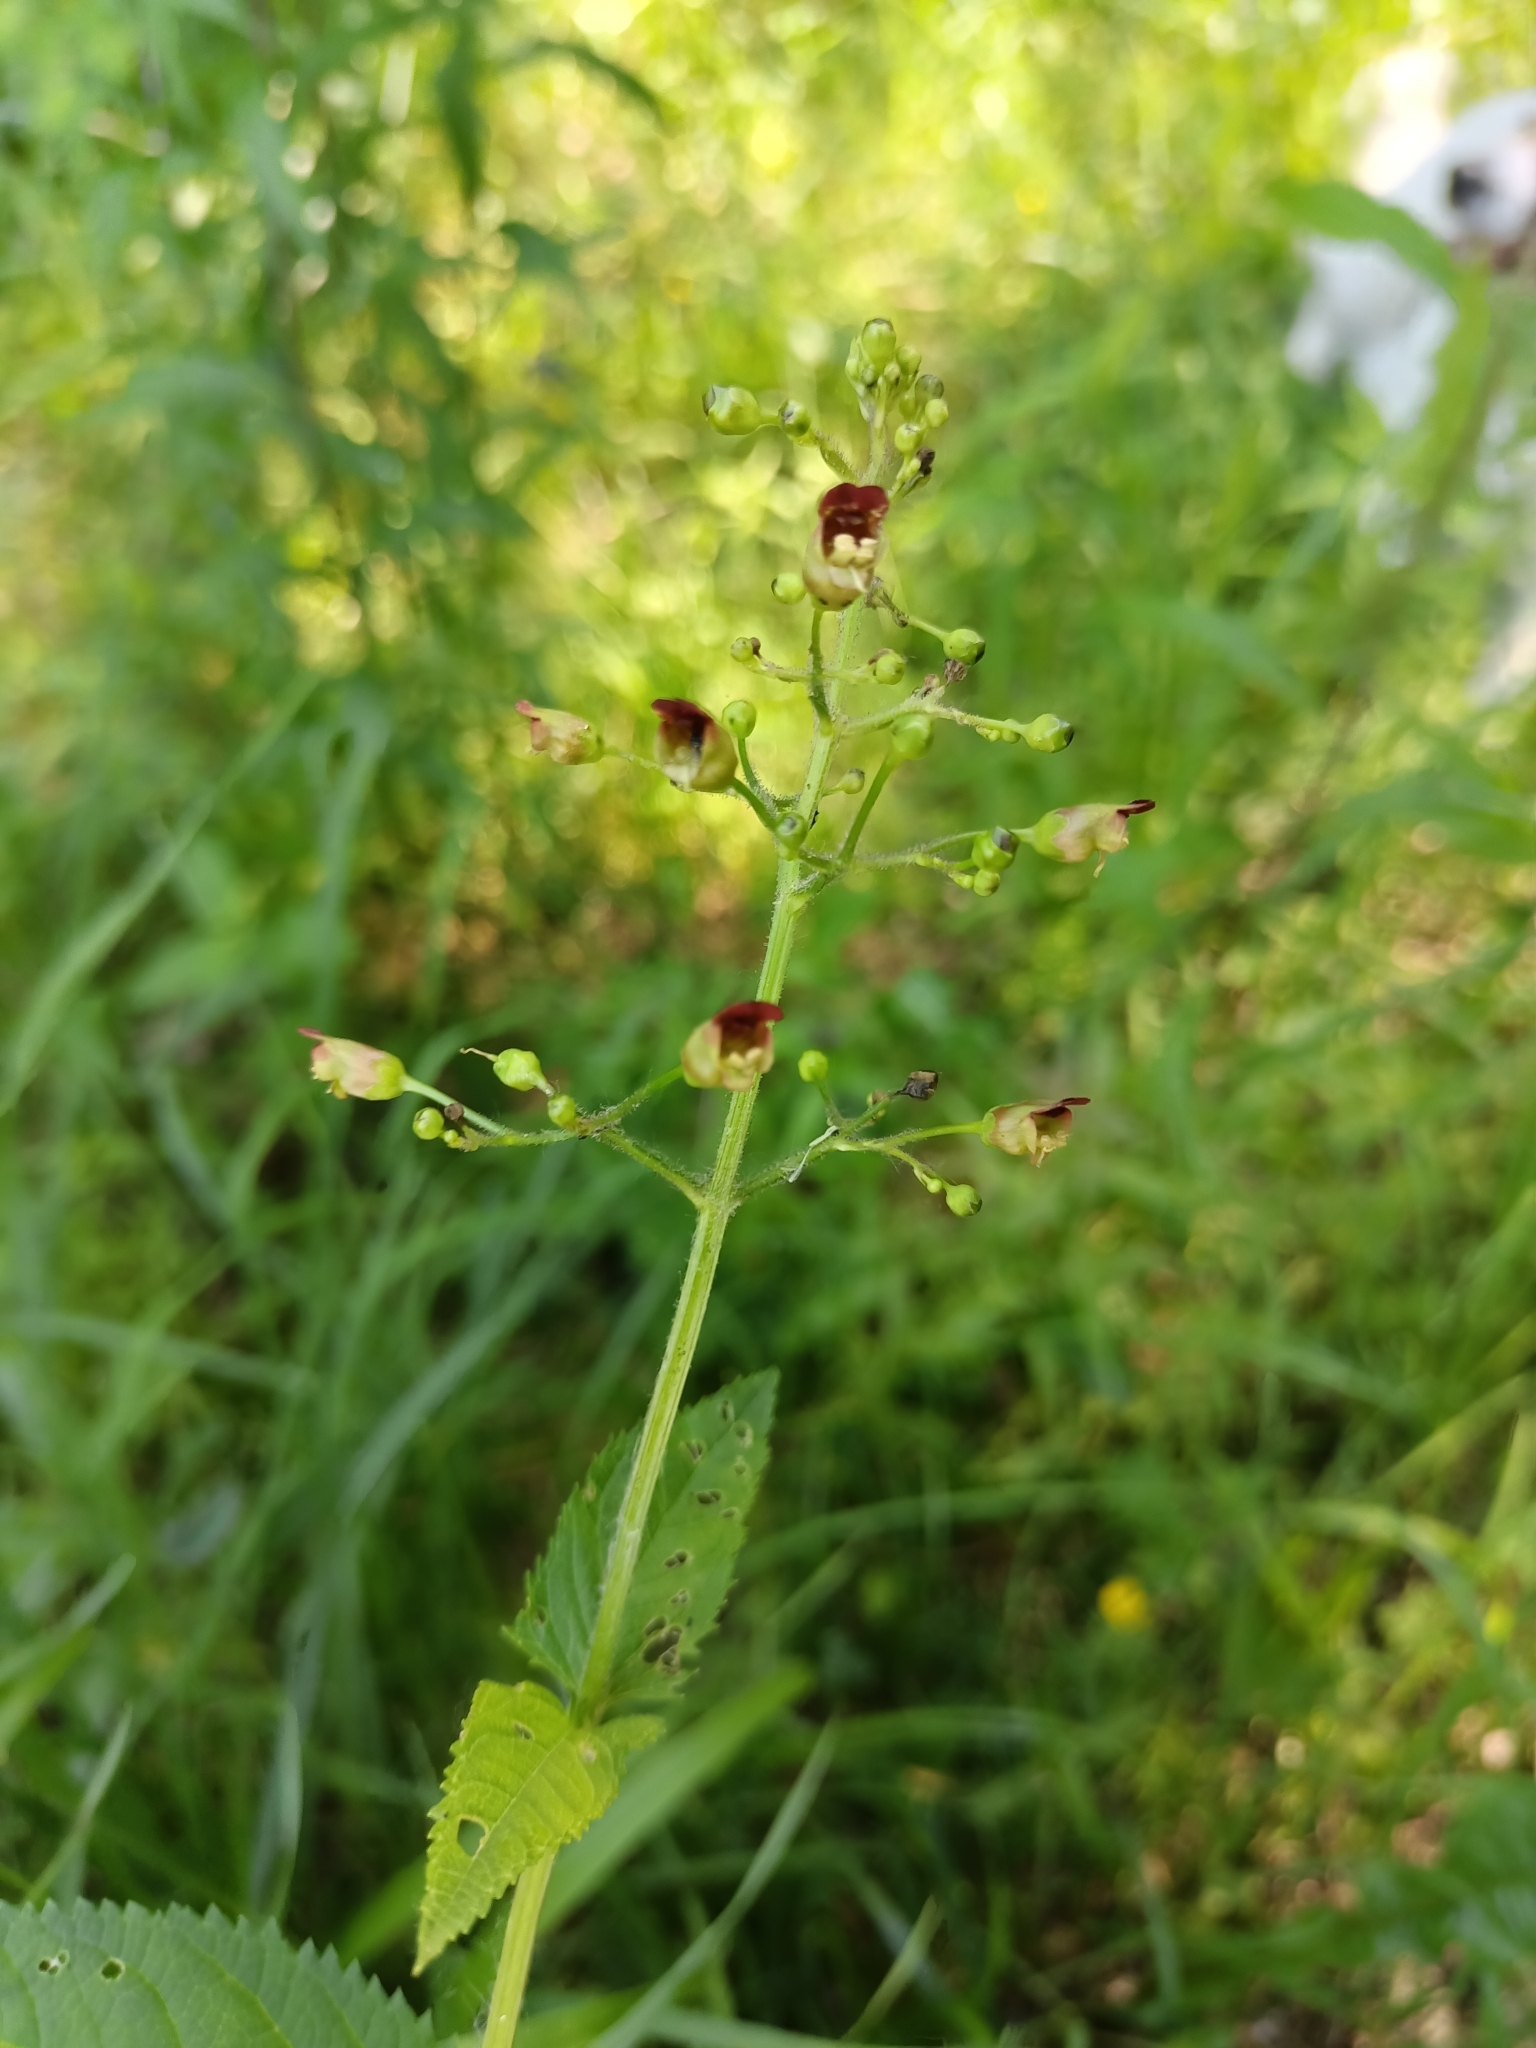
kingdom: Plantae
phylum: Tracheophyta
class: Magnoliopsida
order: Lamiales
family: Scrophulariaceae
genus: Scrophularia
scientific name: Scrophularia nodosa
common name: Common figwort
